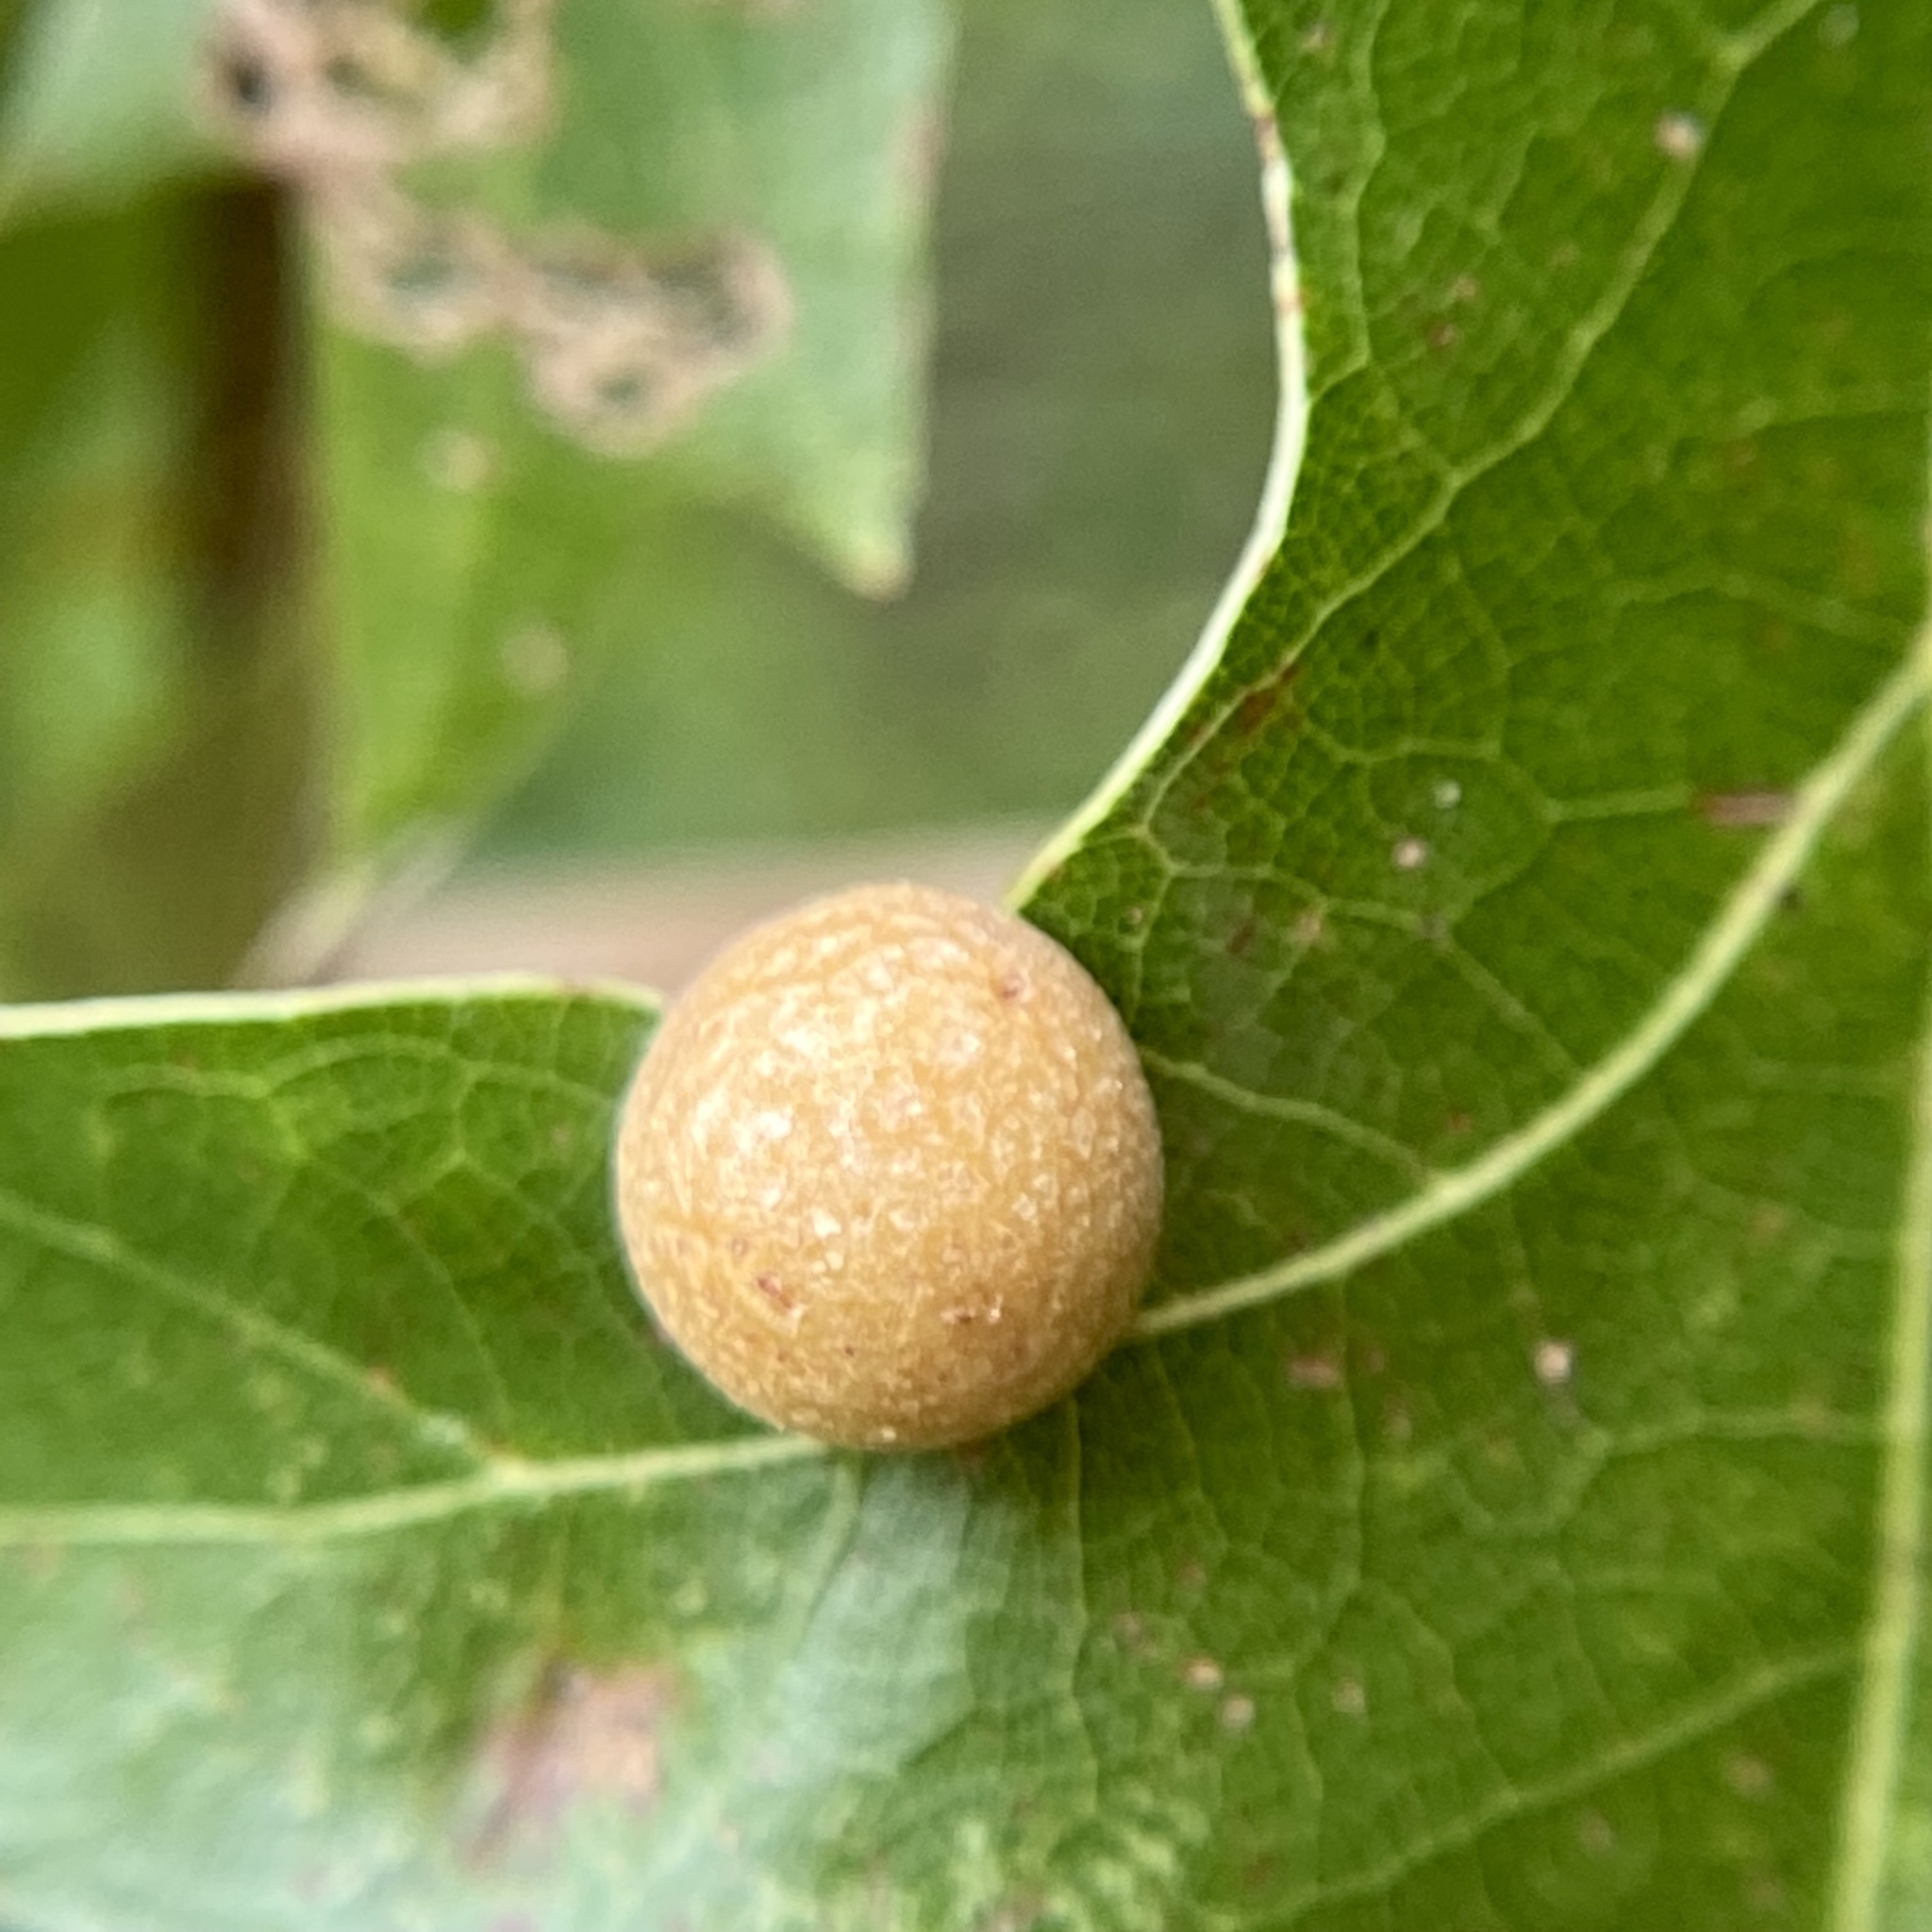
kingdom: Animalia
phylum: Arthropoda
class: Insecta
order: Diptera
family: Cecidomyiidae
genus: Polystepha
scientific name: Polystepha pilulae
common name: Oak leaf gall midge
